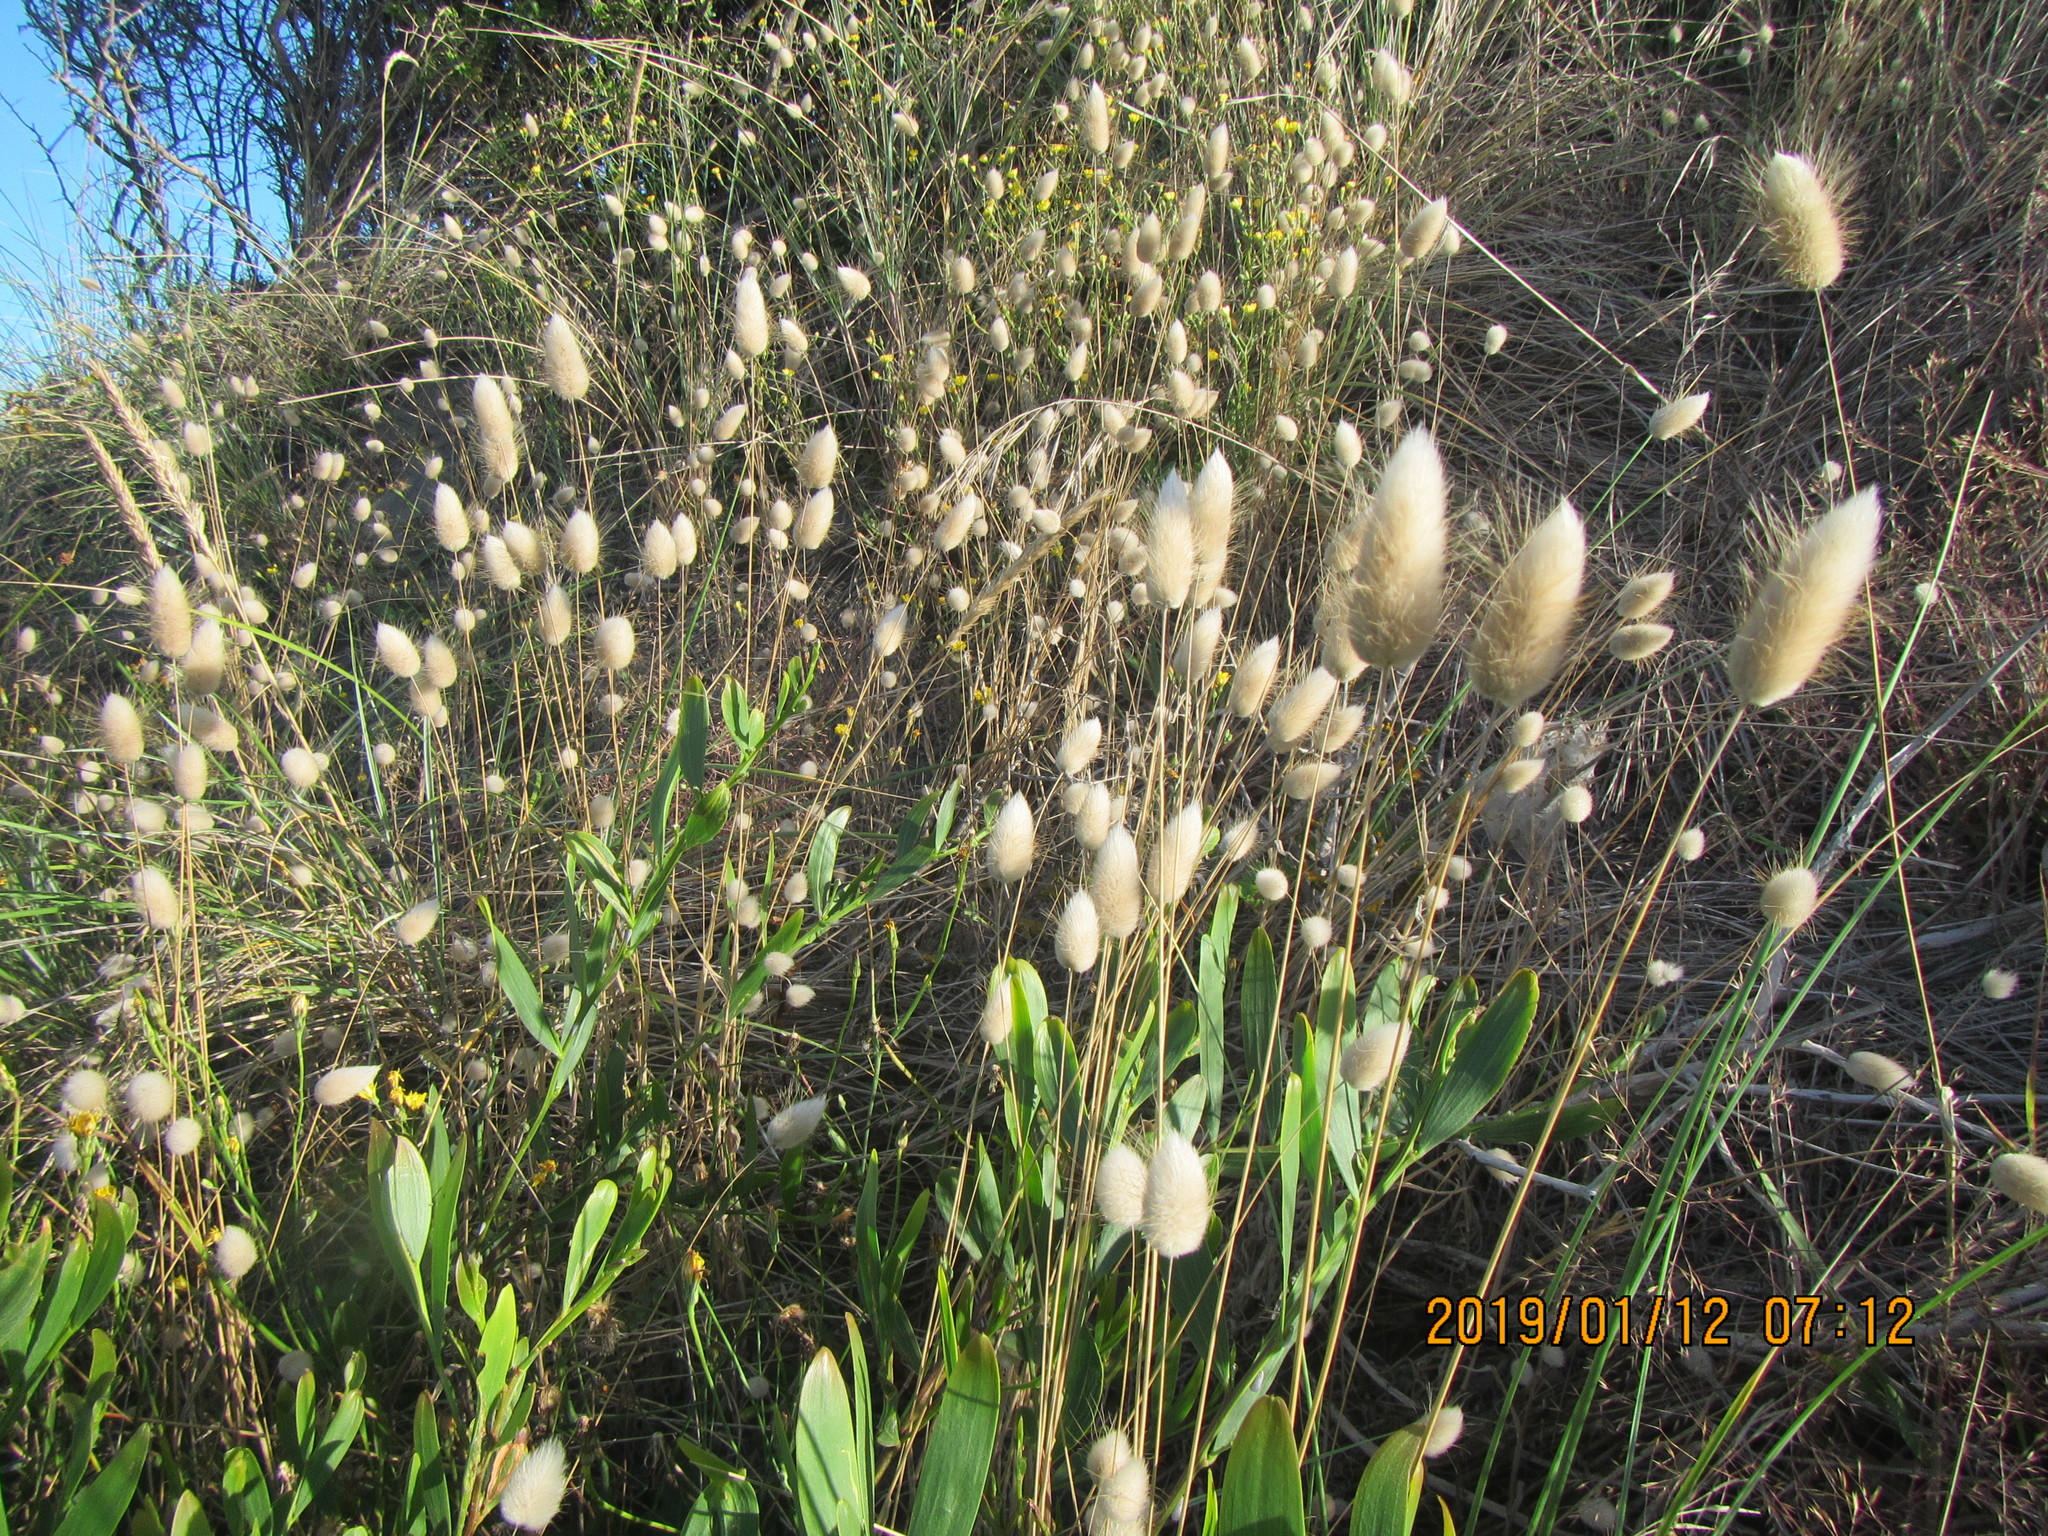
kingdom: Plantae
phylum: Tracheophyta
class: Liliopsida
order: Poales
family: Poaceae
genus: Lagurus
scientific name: Lagurus ovatus
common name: Hare's-tail
